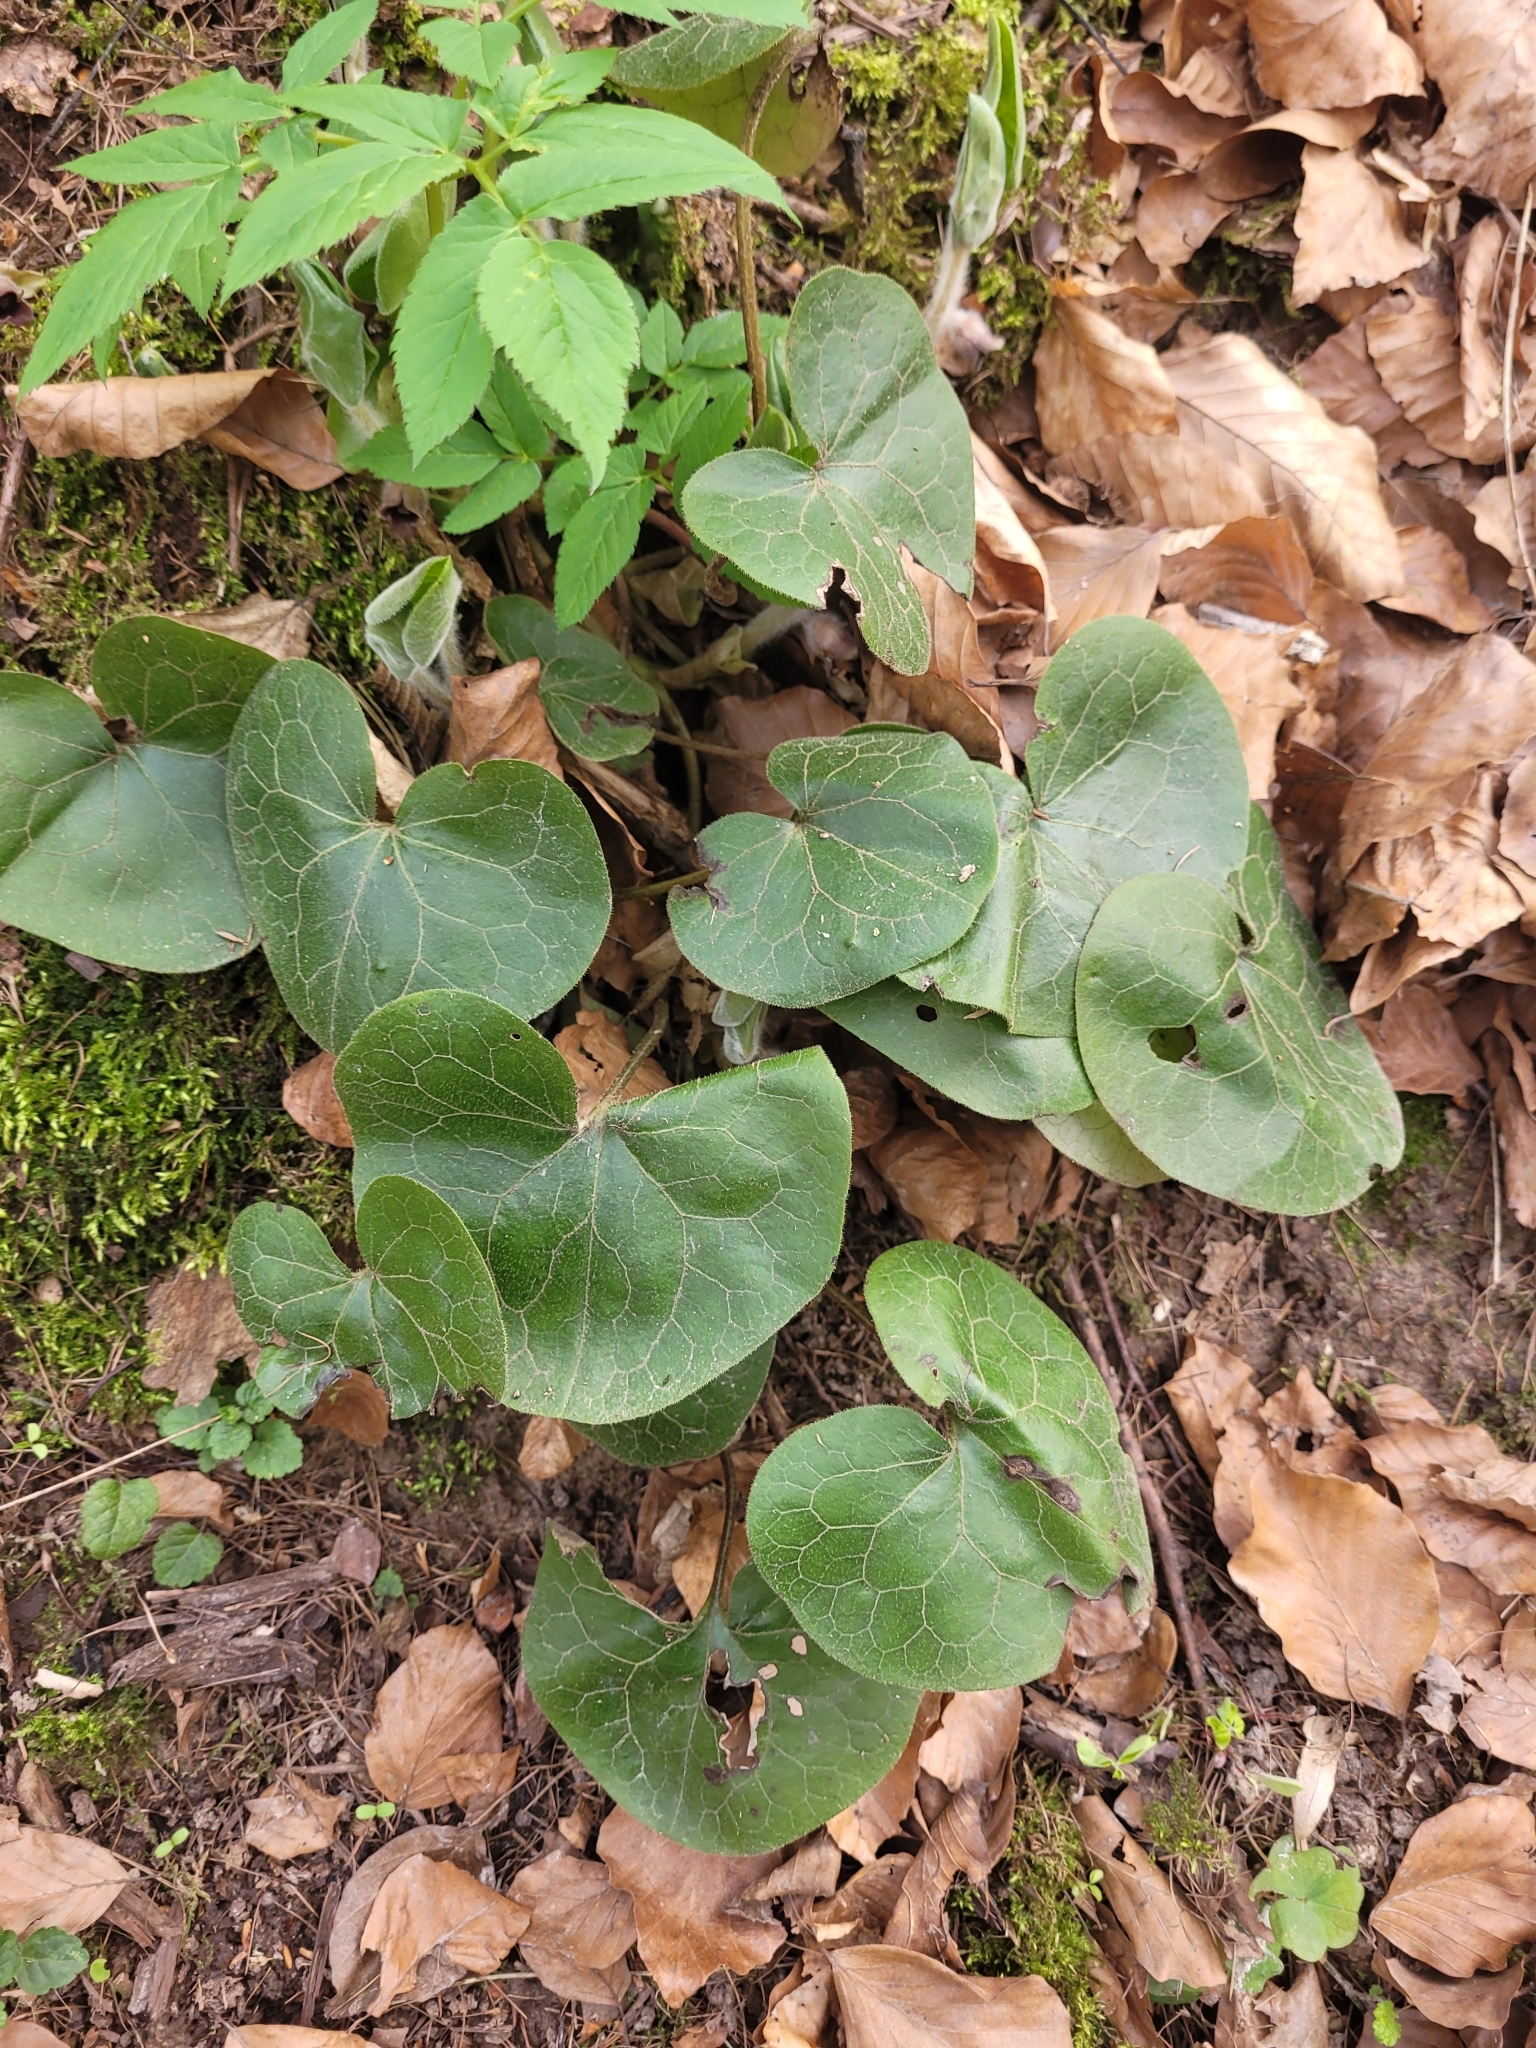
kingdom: Plantae
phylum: Tracheophyta
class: Magnoliopsida
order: Piperales
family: Aristolochiaceae
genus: Asarum
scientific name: Asarum europaeum
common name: Asarabacca
